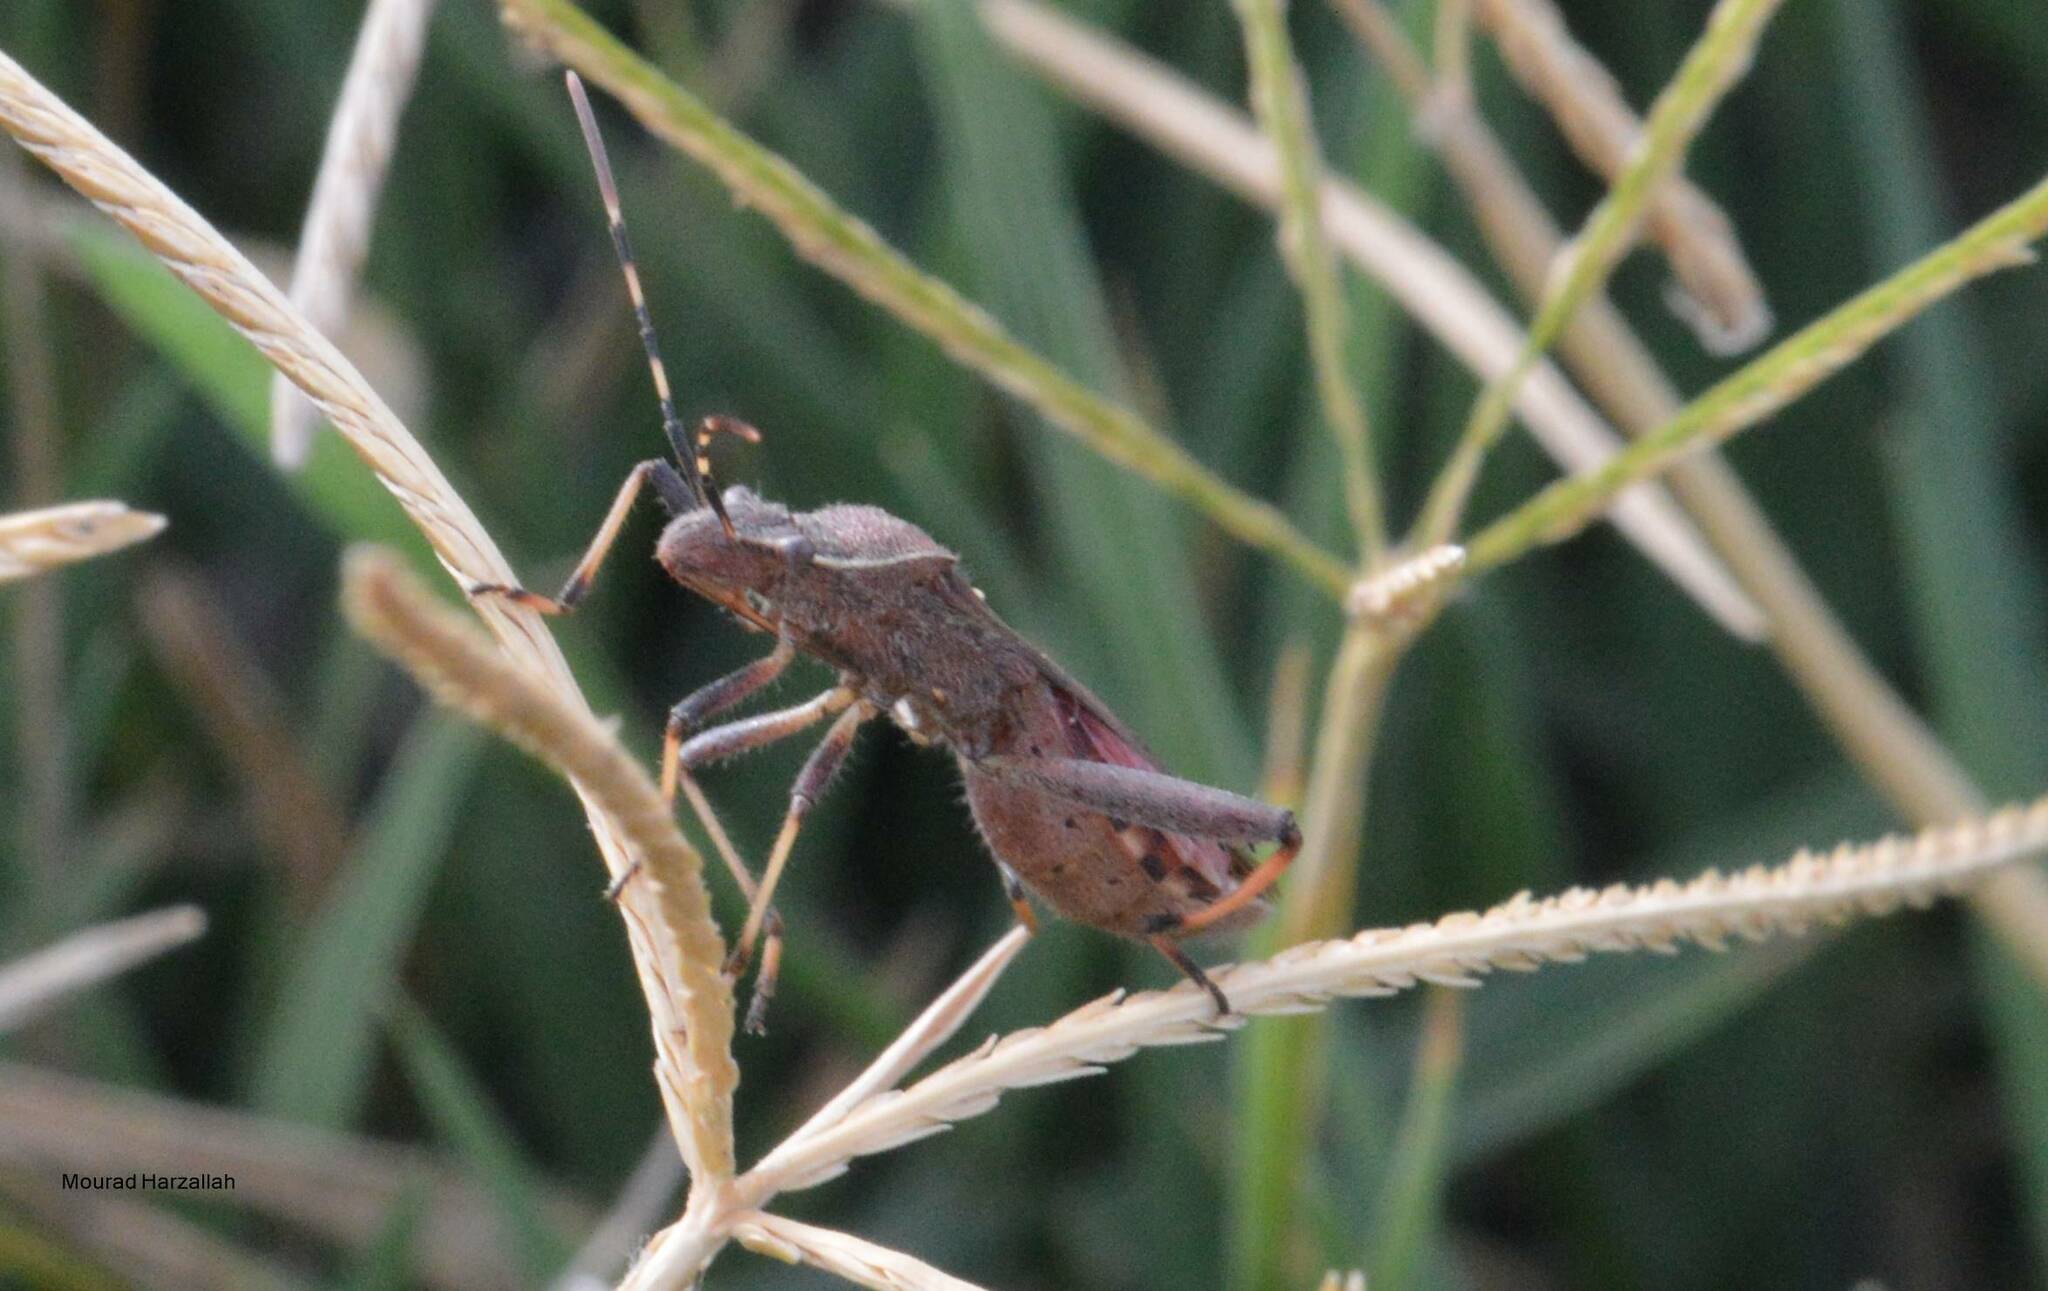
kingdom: Animalia
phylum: Arthropoda
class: Insecta
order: Hemiptera
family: Alydidae
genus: Camptopus
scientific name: Camptopus lateralis
